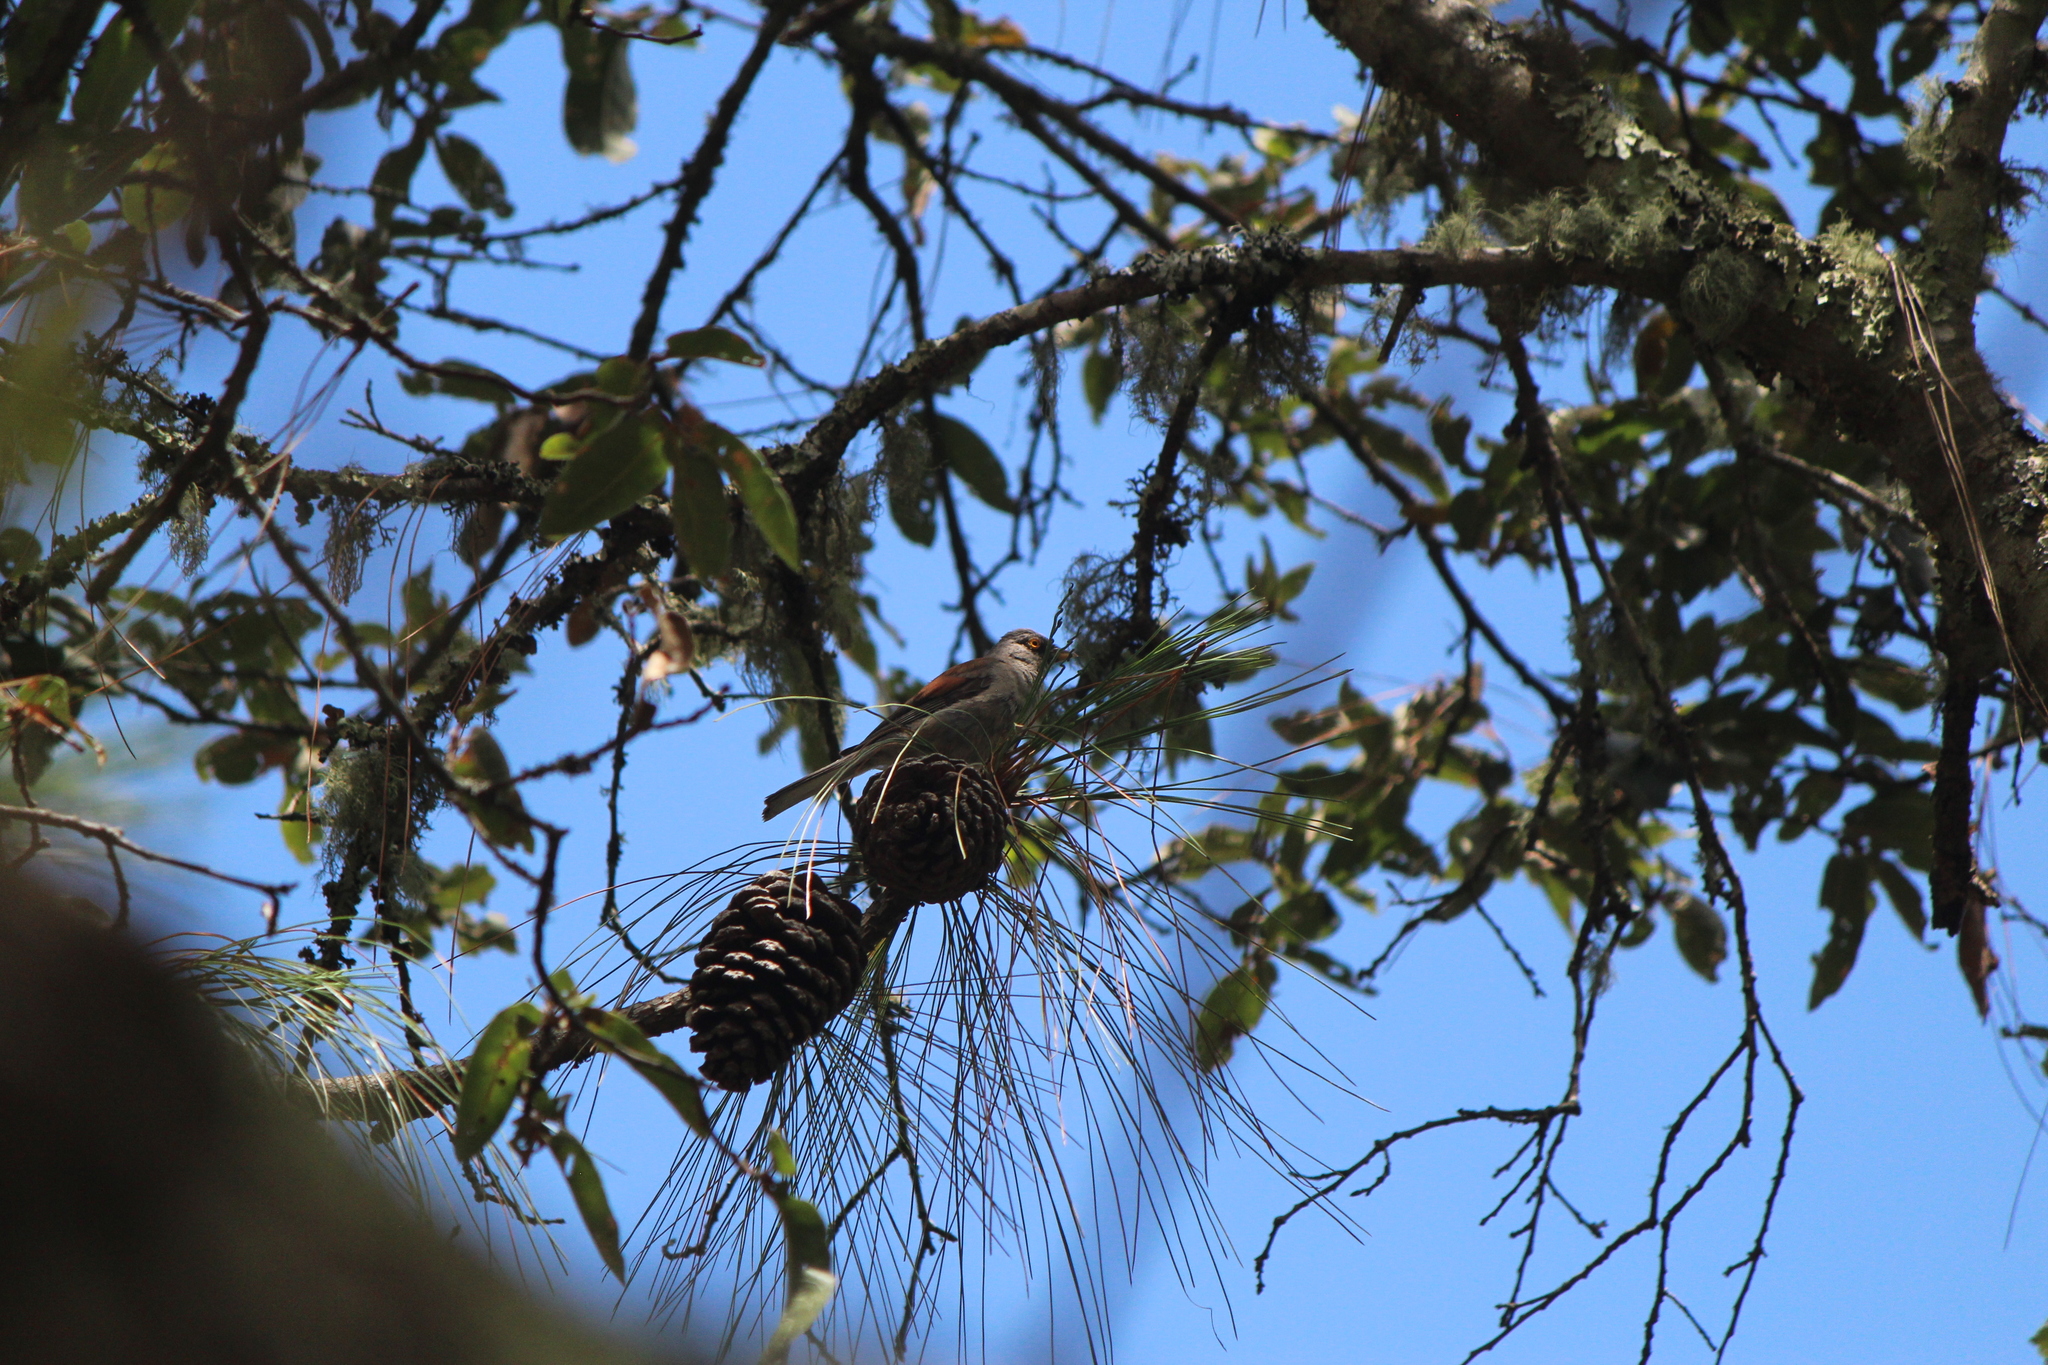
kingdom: Animalia
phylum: Chordata
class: Aves
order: Passeriformes
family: Passerellidae
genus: Junco
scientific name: Junco phaeonotus
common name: Yellow-eyed junco
